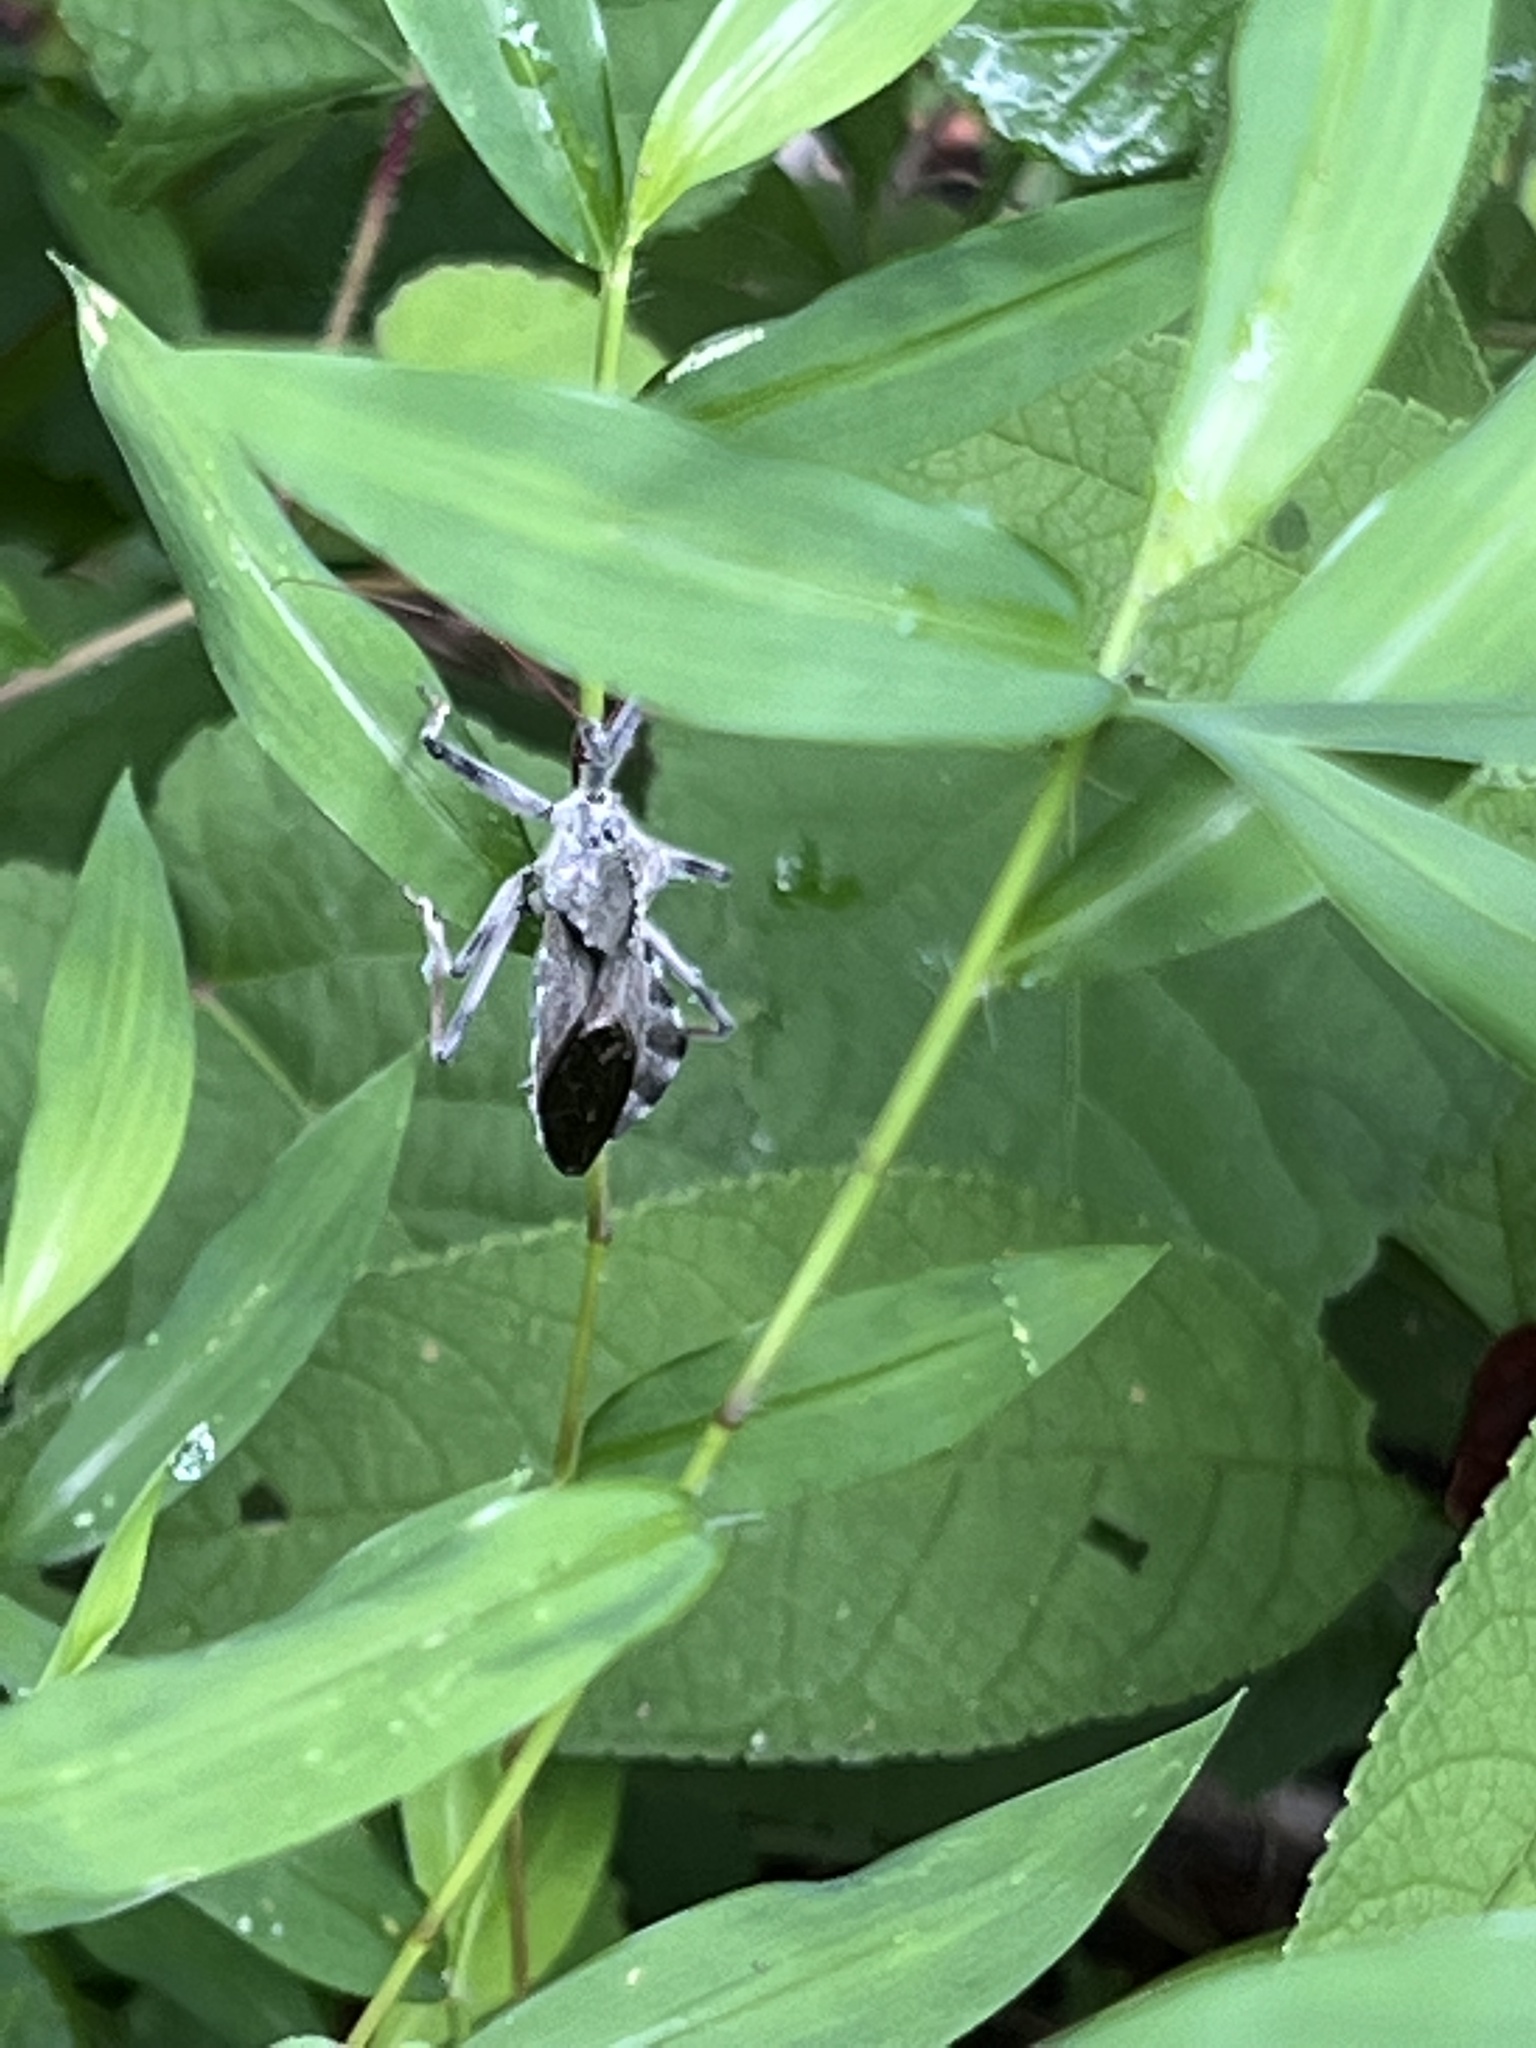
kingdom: Animalia
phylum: Arthropoda
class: Insecta
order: Hemiptera
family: Reduviidae
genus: Arilus
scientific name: Arilus cristatus
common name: North american wheel bug
